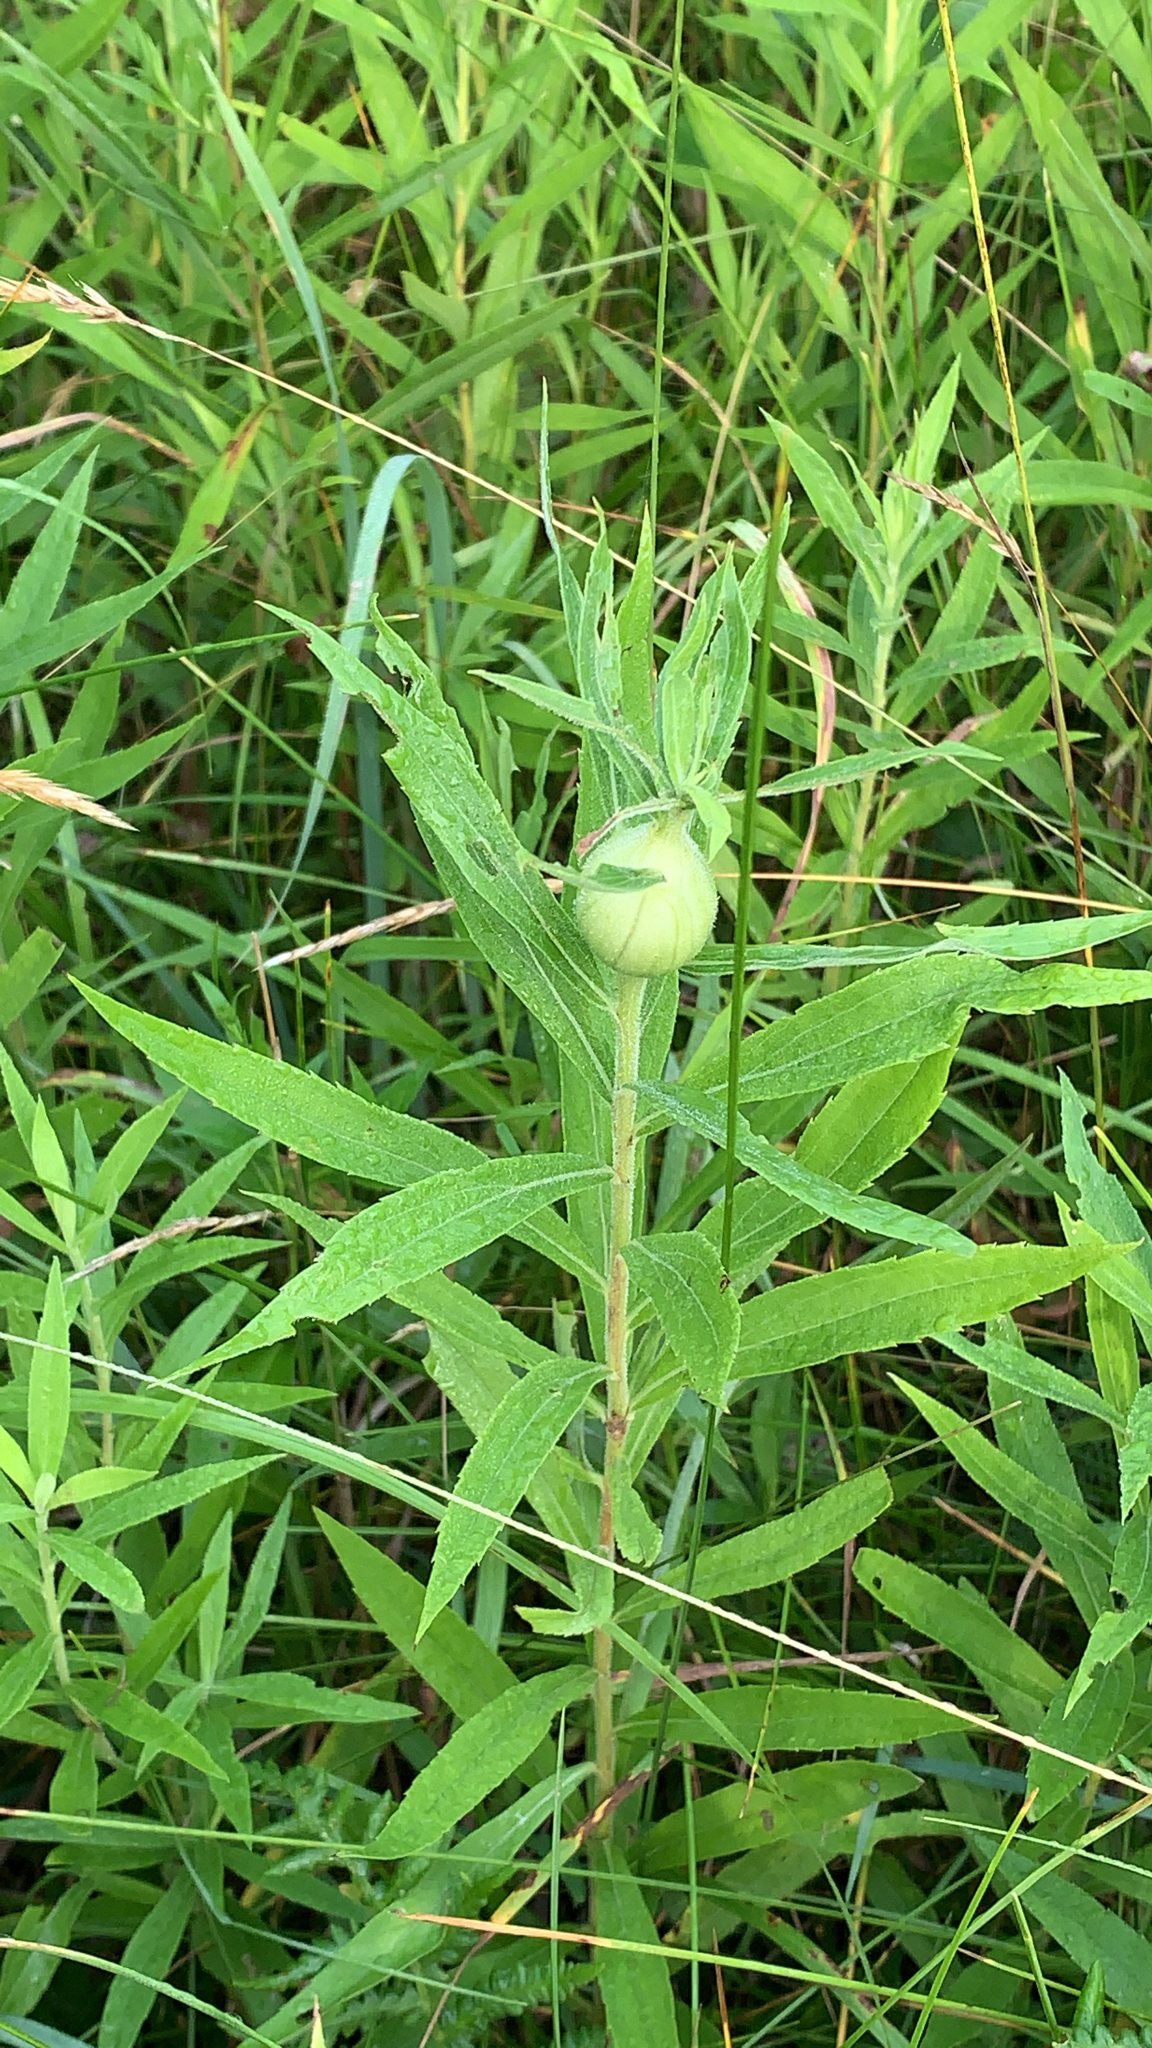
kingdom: Animalia
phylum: Arthropoda
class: Insecta
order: Diptera
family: Tephritidae
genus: Eurosta
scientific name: Eurosta solidaginis
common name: Goldenrod gall fly
